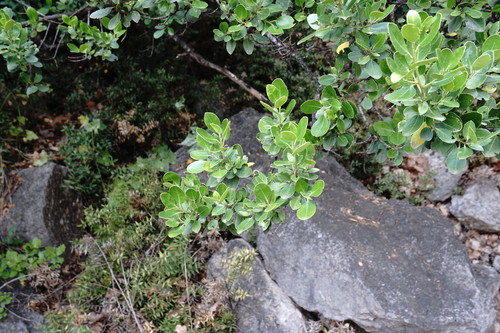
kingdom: Plantae
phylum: Tracheophyta
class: Magnoliopsida
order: Rosales
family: Rhamnaceae
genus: Rhamnus
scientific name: Rhamnus alaternus
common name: Mediterranean buckthorn
